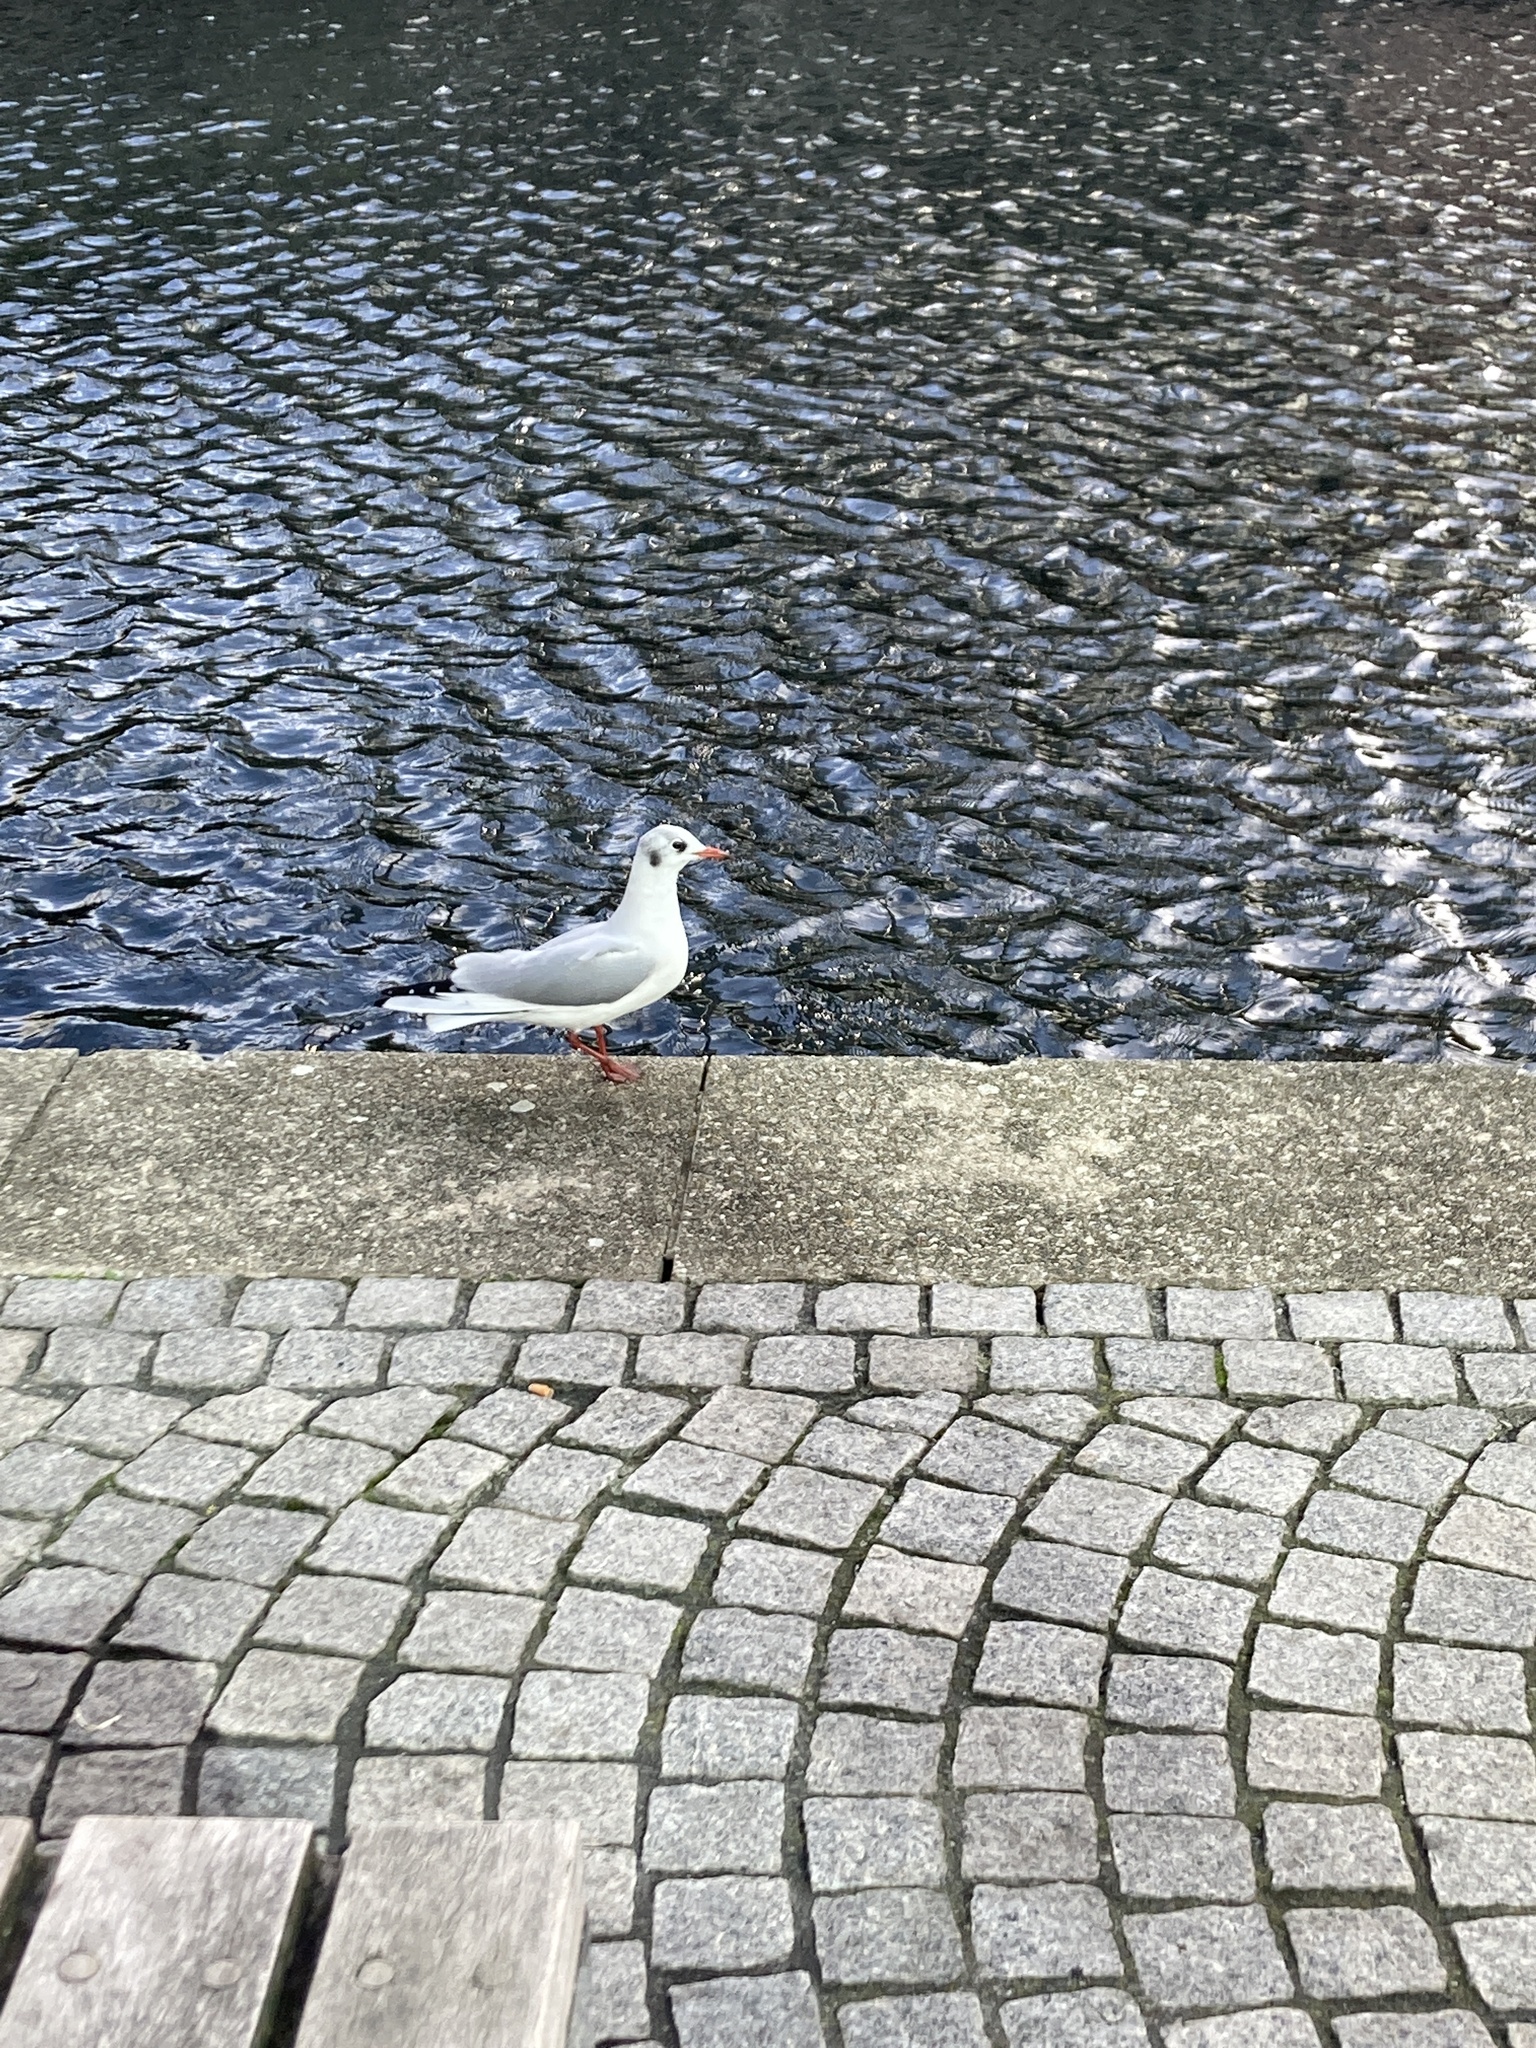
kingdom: Animalia
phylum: Chordata
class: Aves
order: Charadriiformes
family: Laridae
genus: Chroicocephalus
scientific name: Chroicocephalus ridibundus
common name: Black-headed gull
